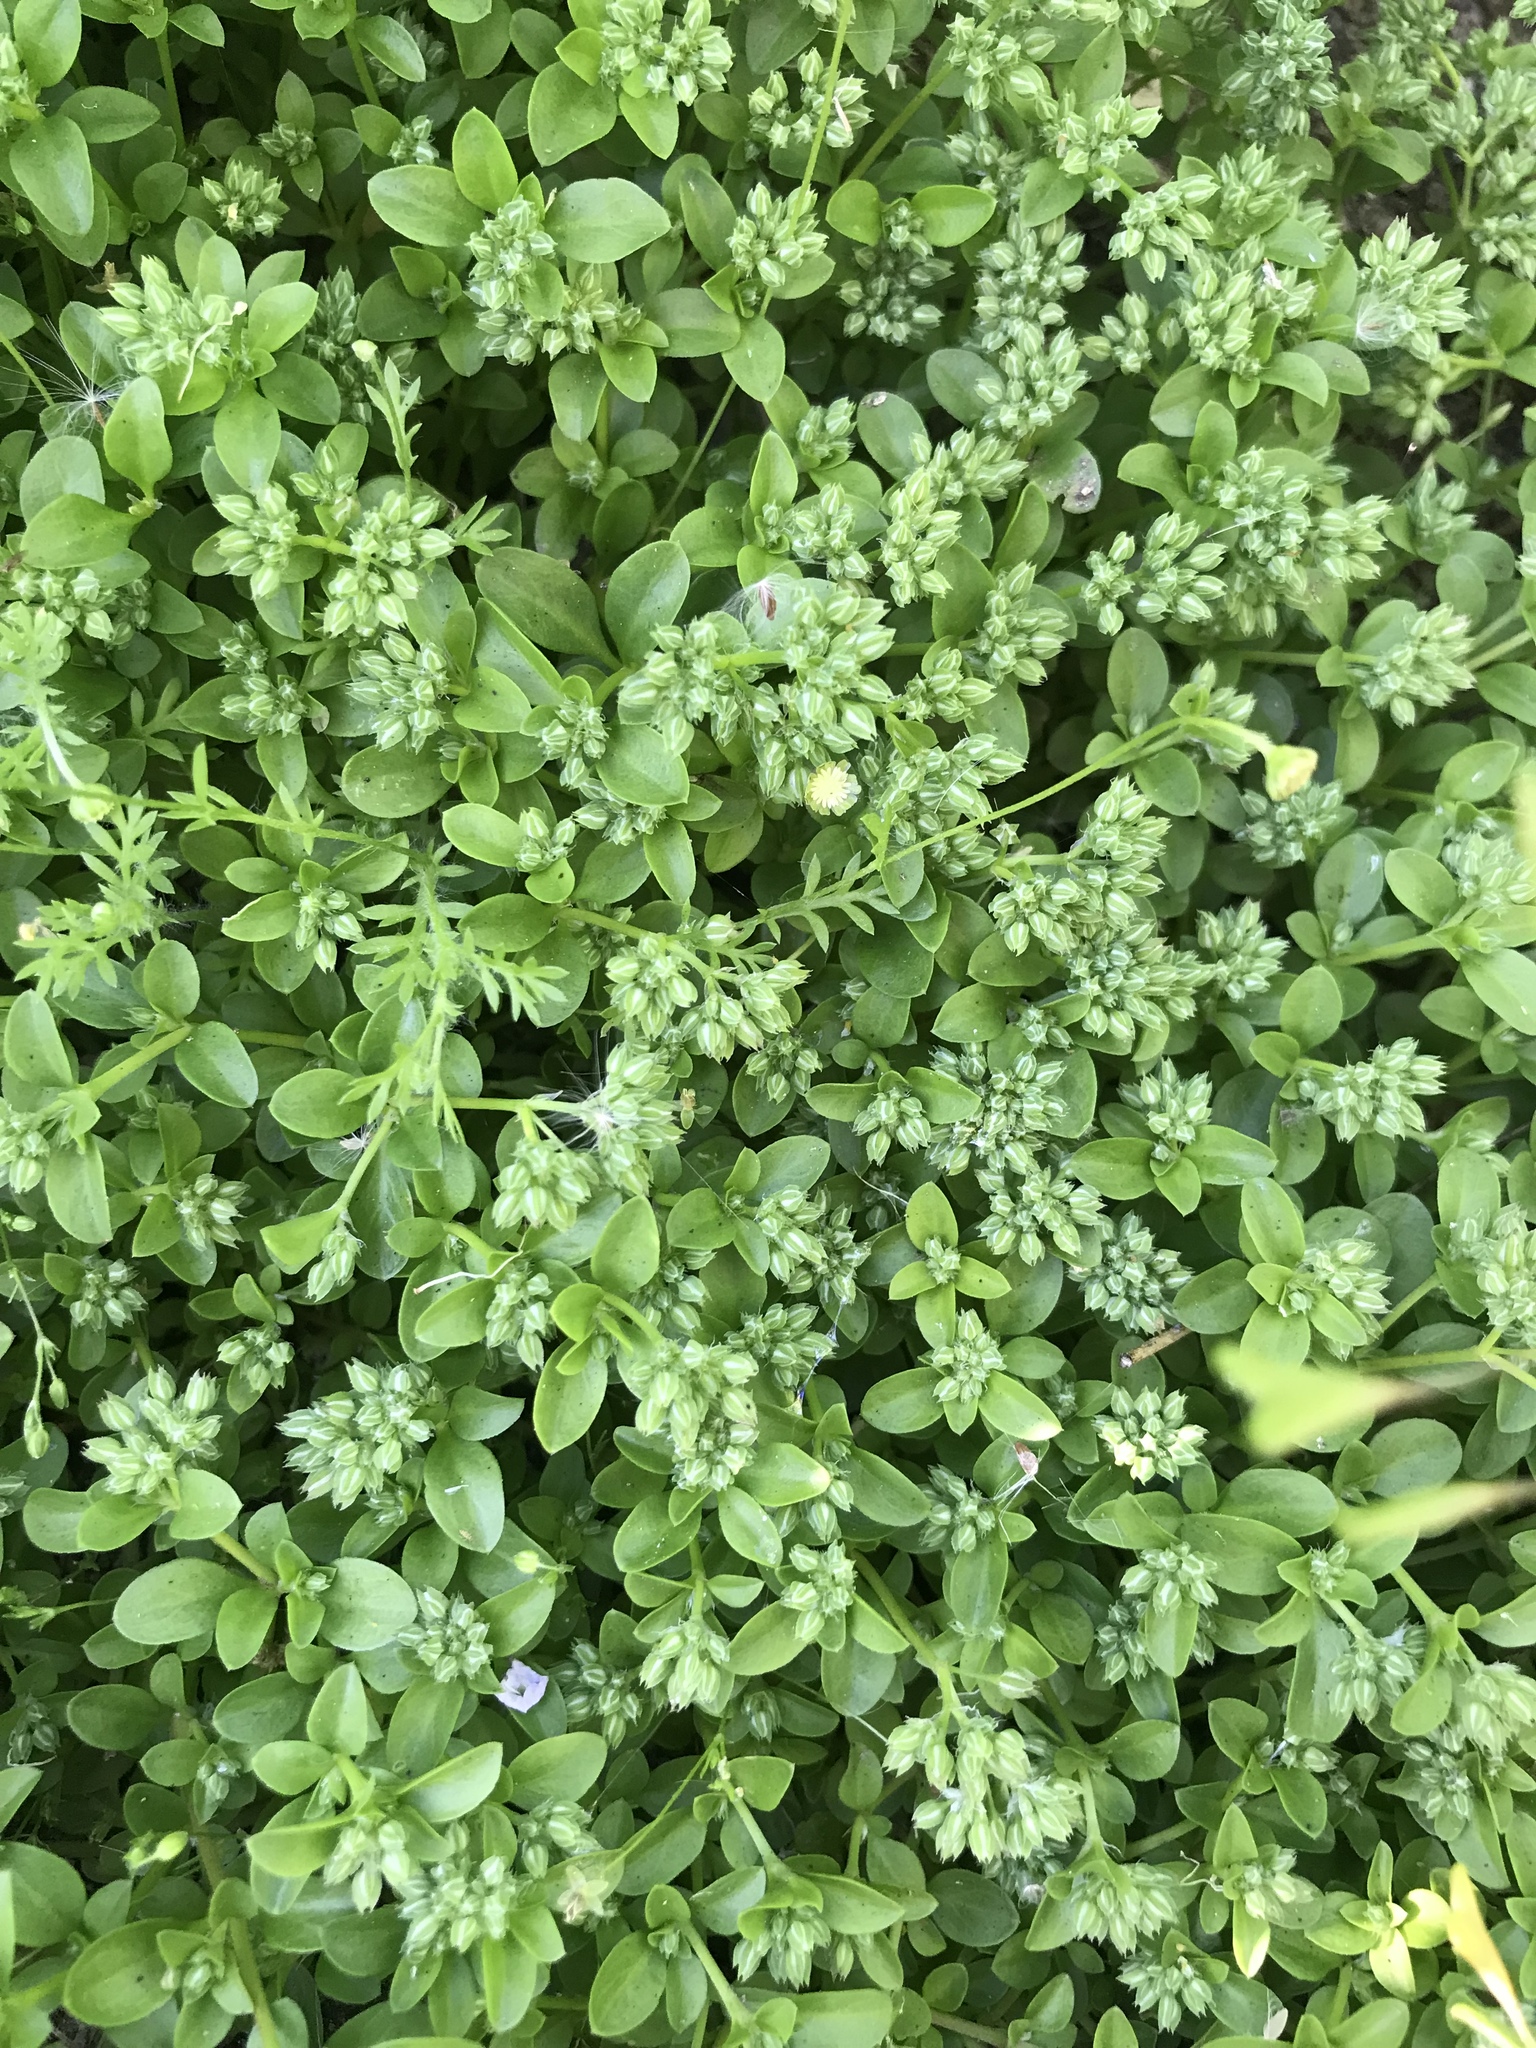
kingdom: Plantae
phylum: Tracheophyta
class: Magnoliopsida
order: Caryophyllales
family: Caryophyllaceae
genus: Polycarpon
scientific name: Polycarpon tetraphyllum
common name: Four-leaved all-seed
